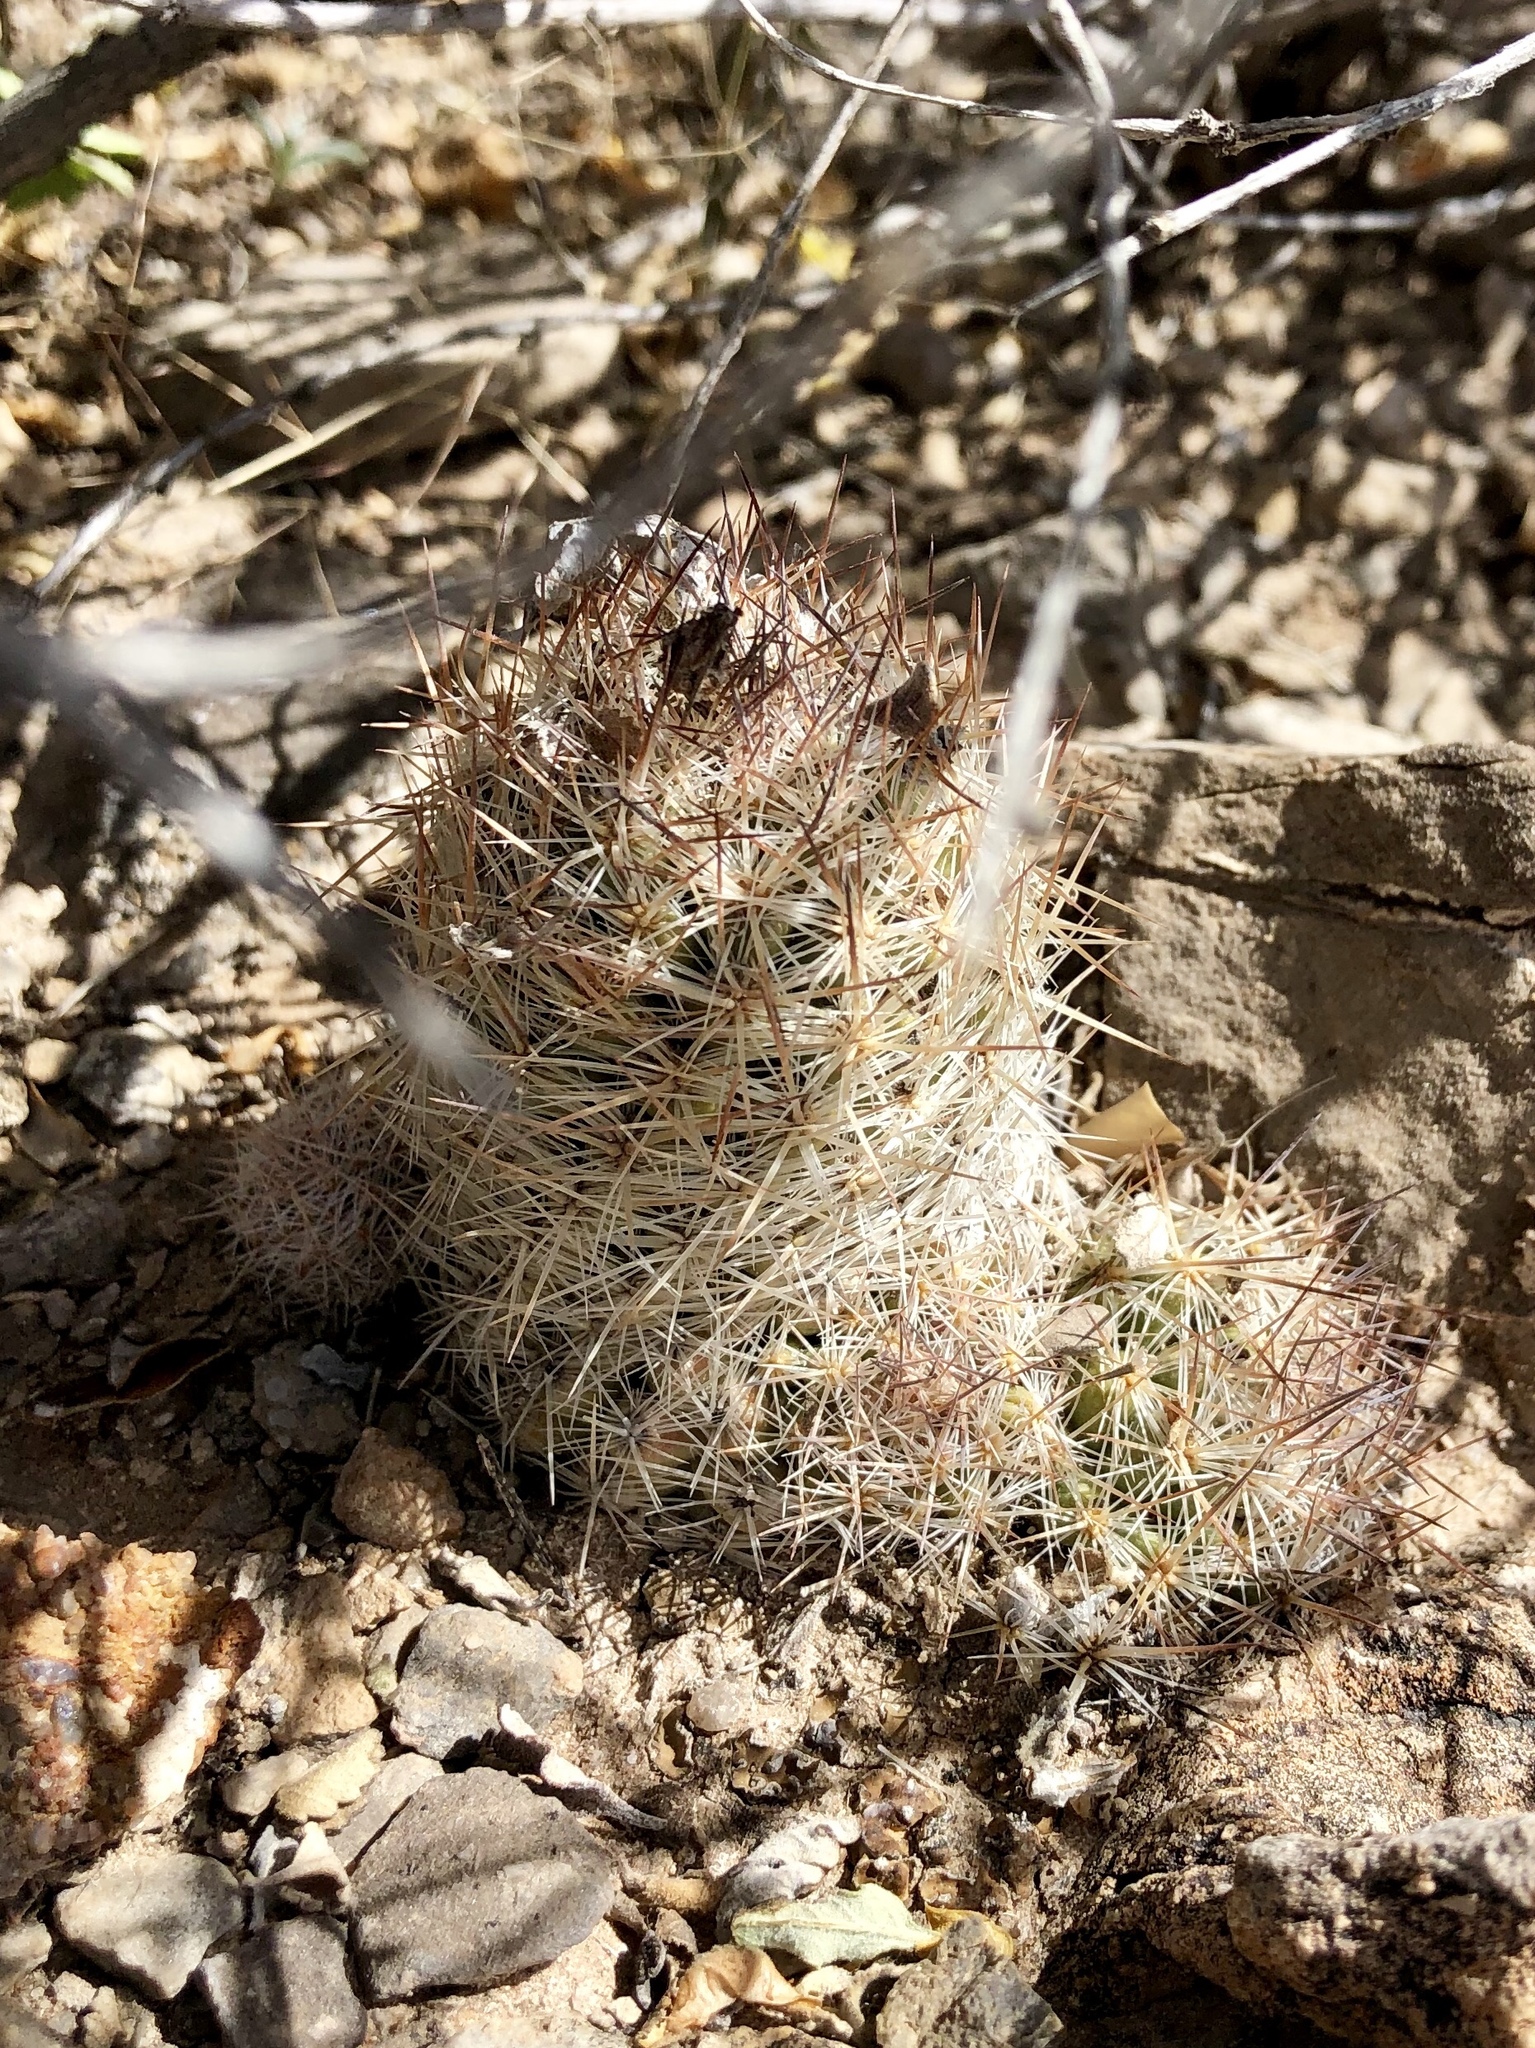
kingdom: Plantae
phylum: Tracheophyta
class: Magnoliopsida
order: Caryophyllales
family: Cactaceae
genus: Pelecyphora
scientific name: Pelecyphora tuberculosa
